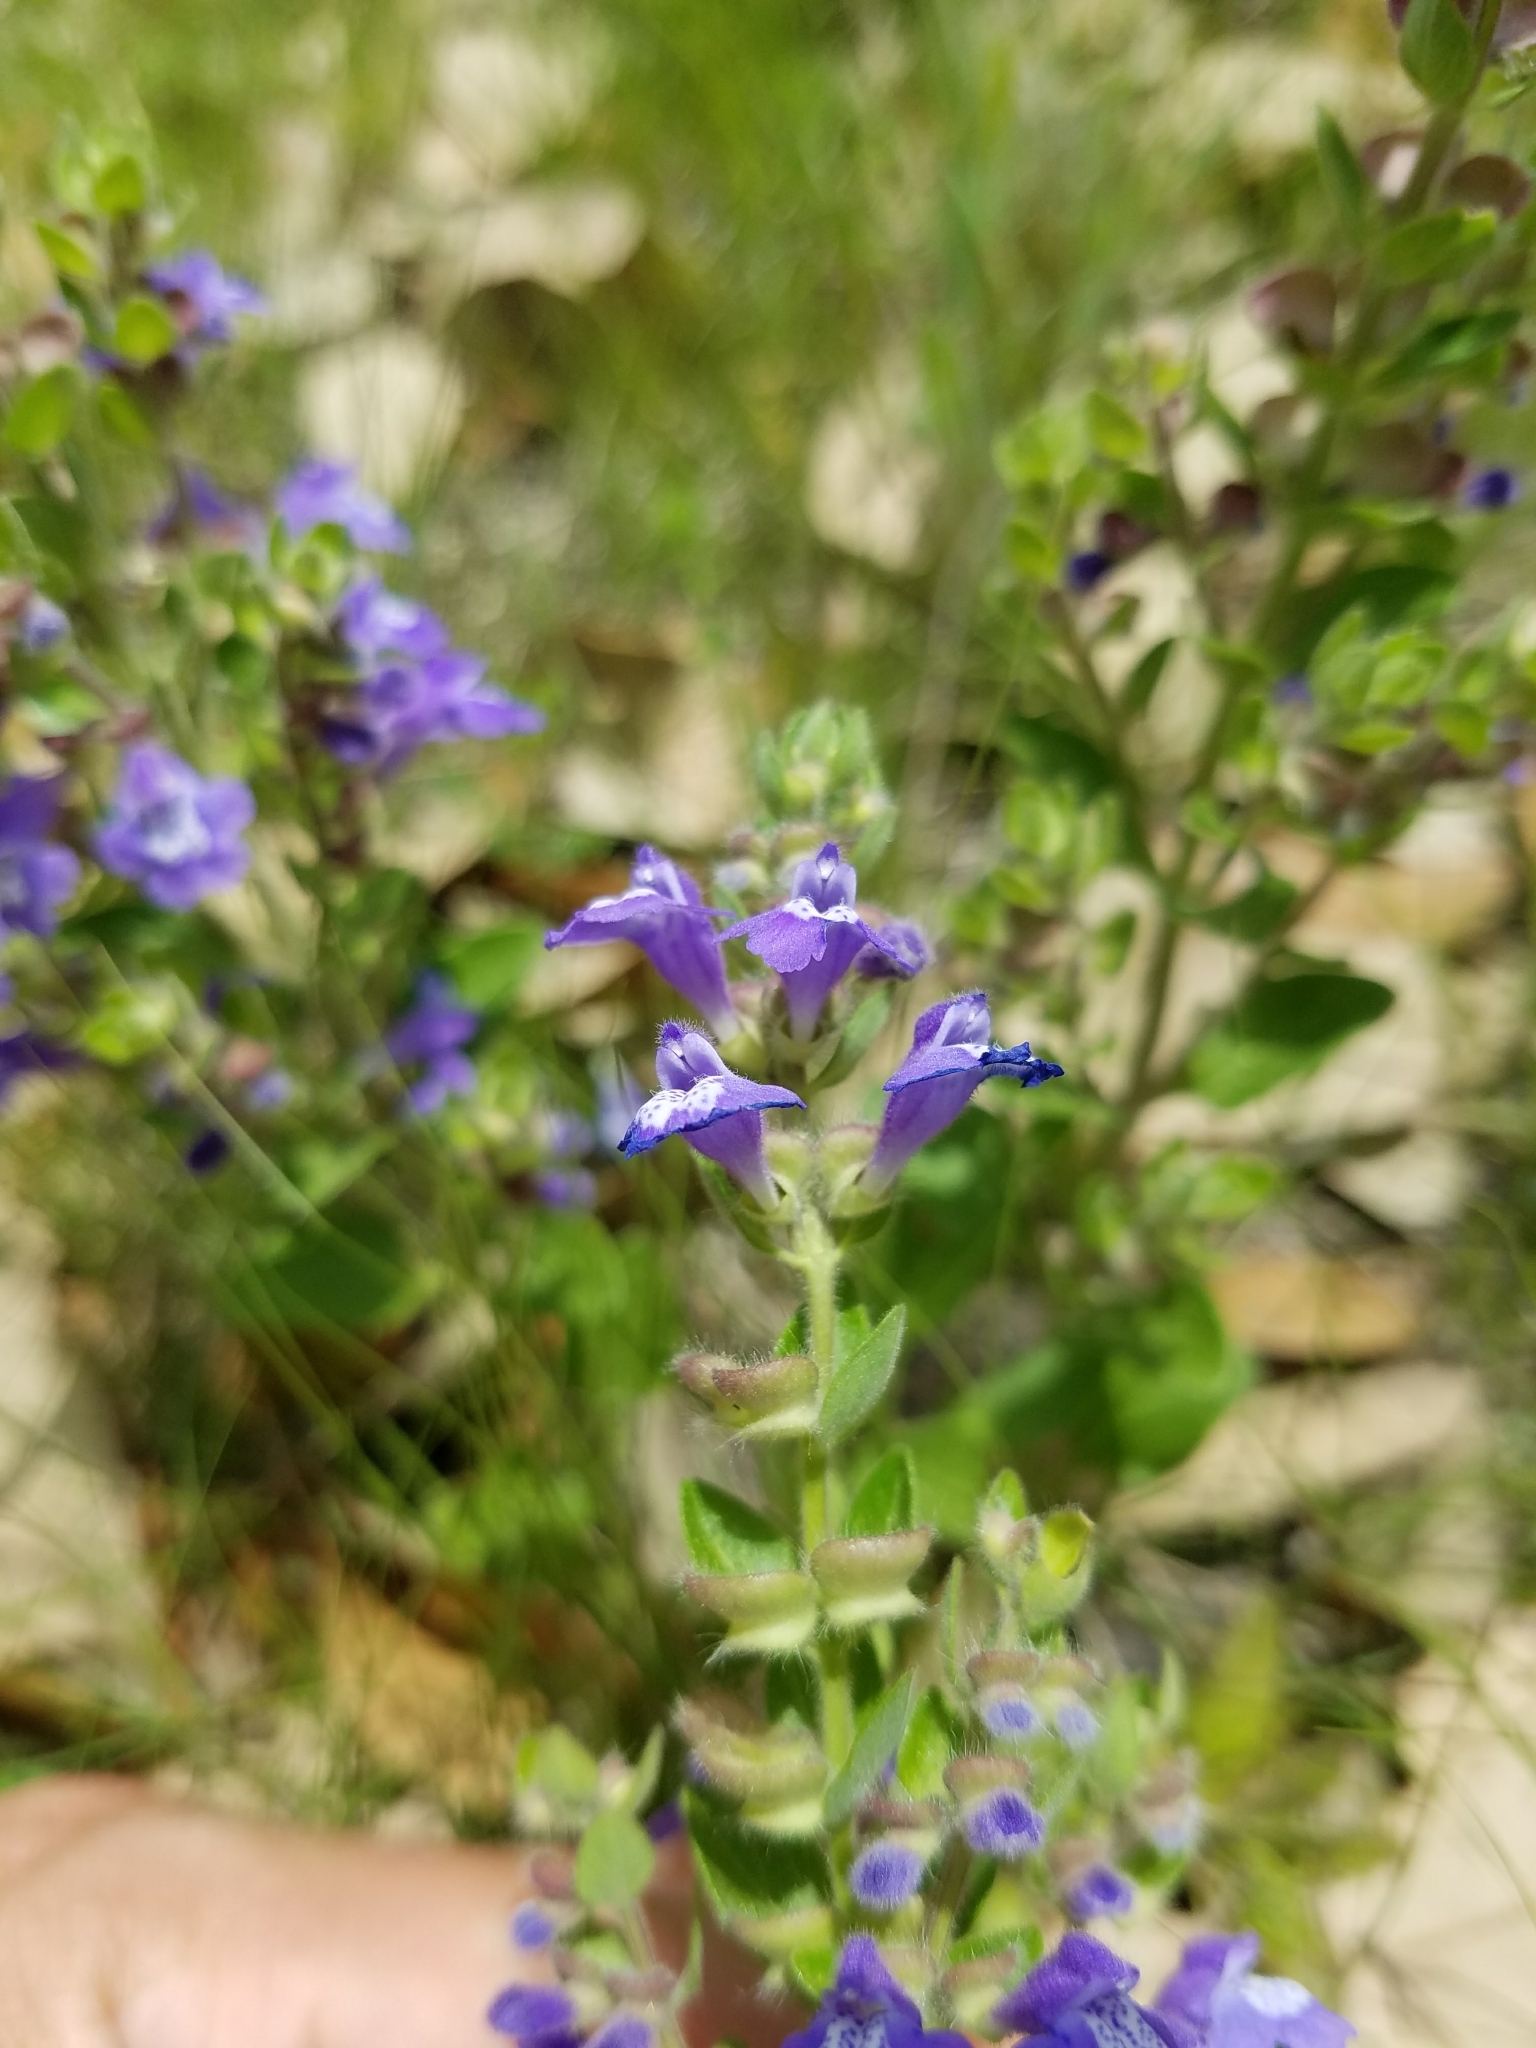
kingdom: Plantae
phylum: Tracheophyta
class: Magnoliopsida
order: Lamiales
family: Lamiaceae
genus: Scutellaria
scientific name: Scutellaria drummondii
